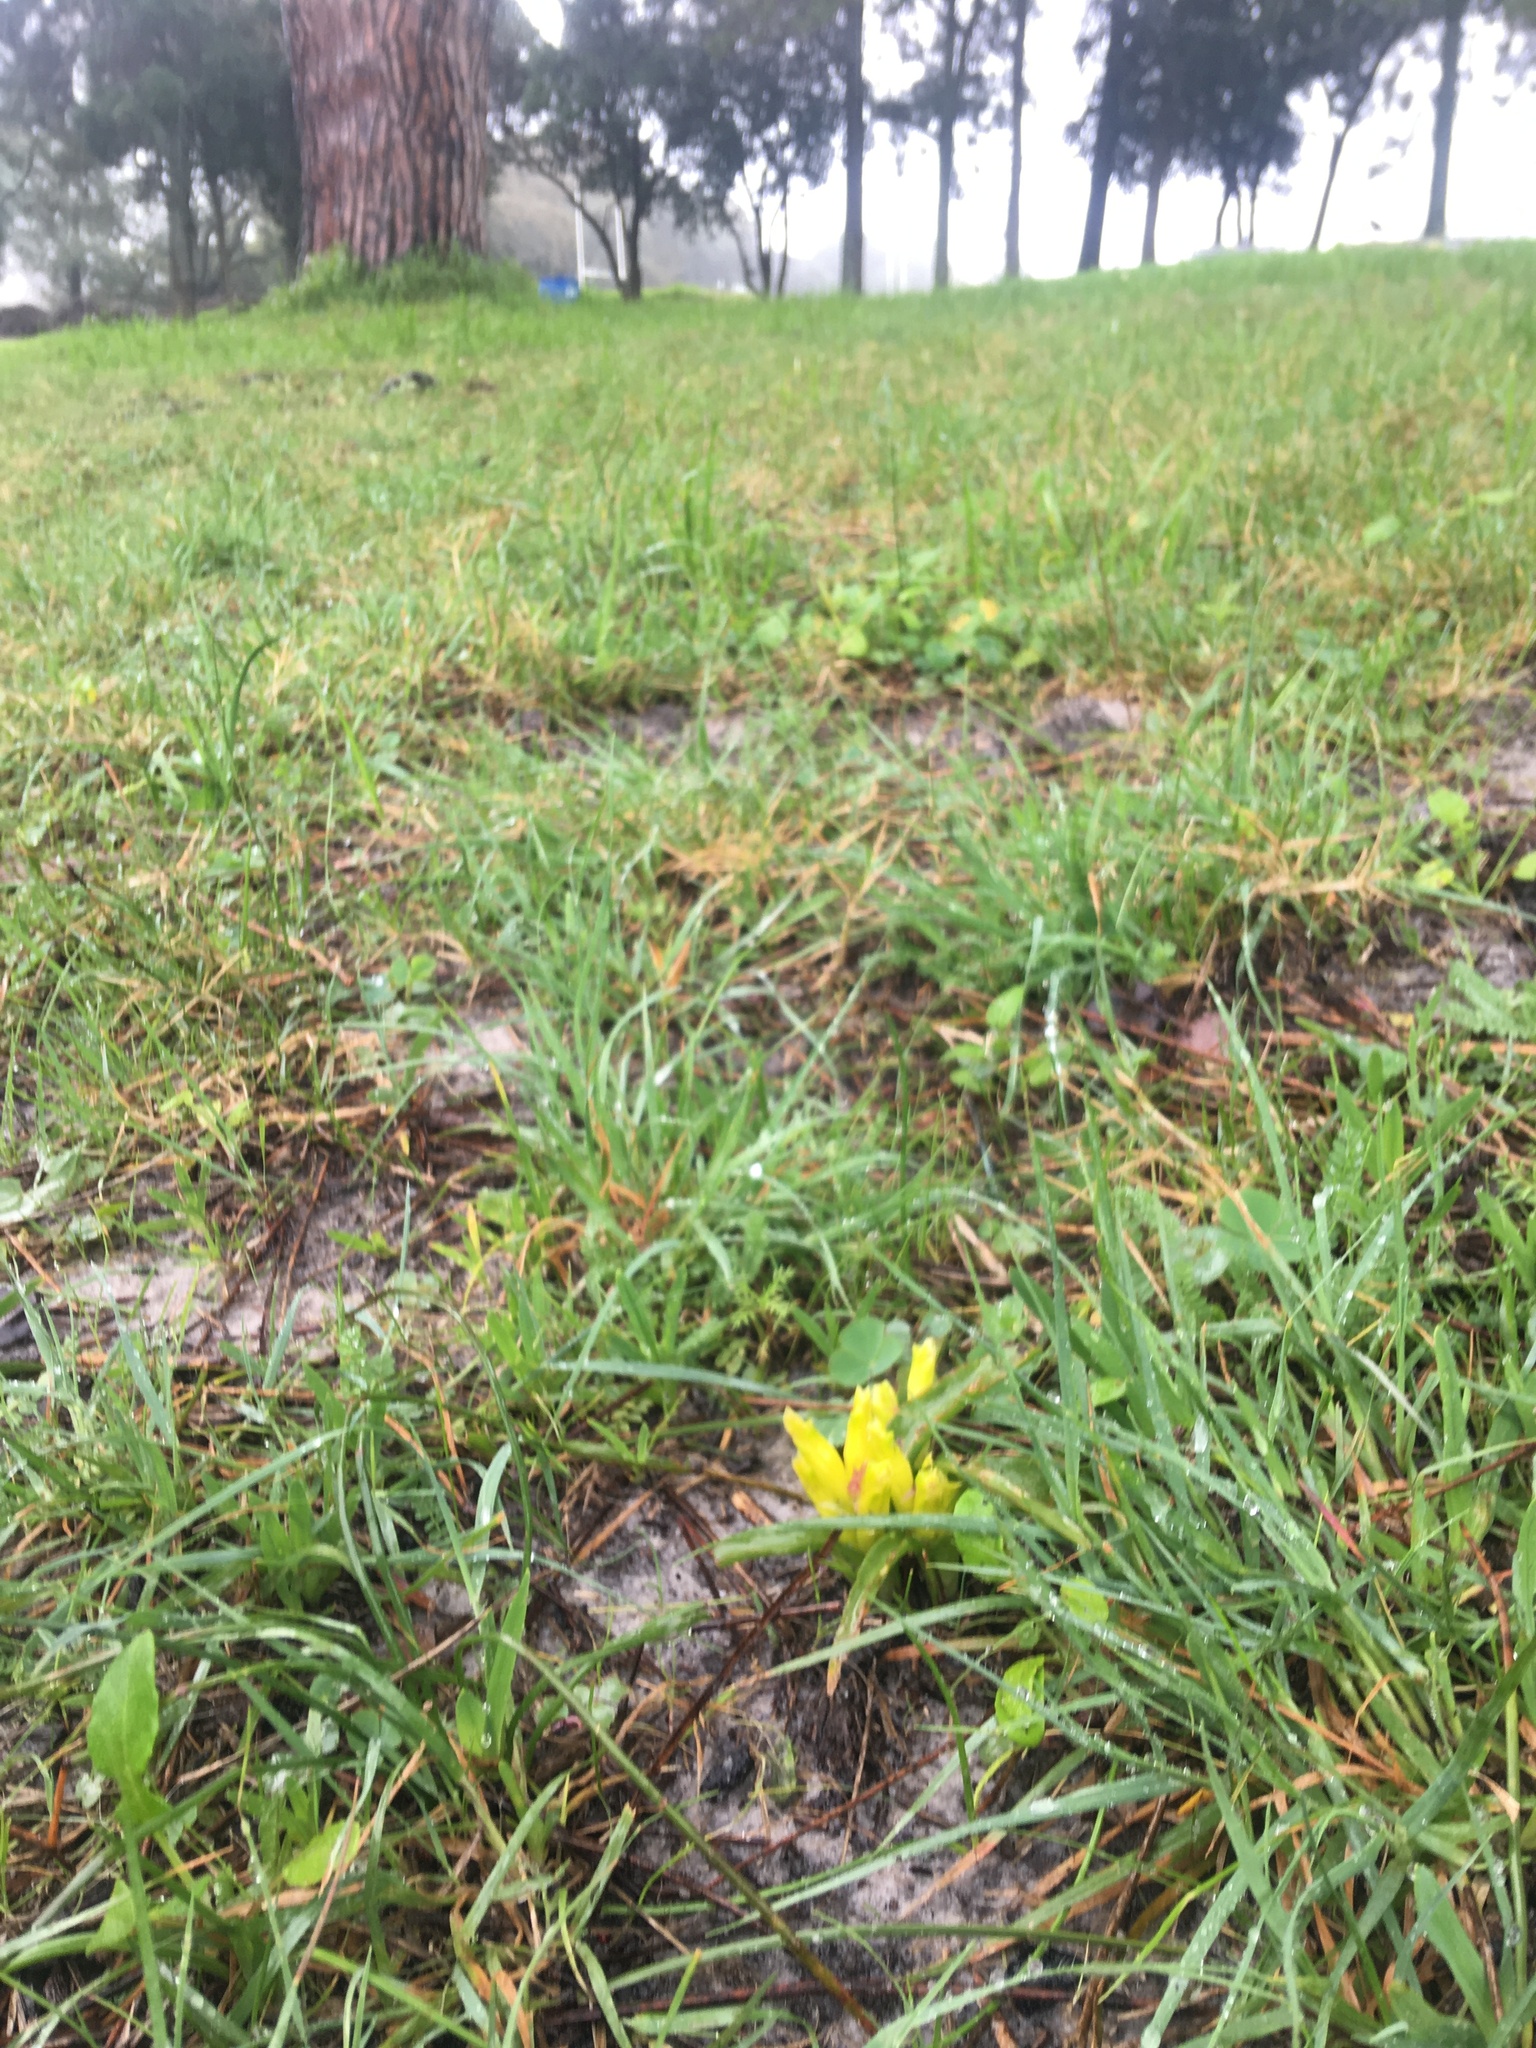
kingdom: Plantae
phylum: Tracheophyta
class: Liliopsida
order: Asparagales
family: Asparagaceae
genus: Lachenalia
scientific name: Lachenalia reflexa
